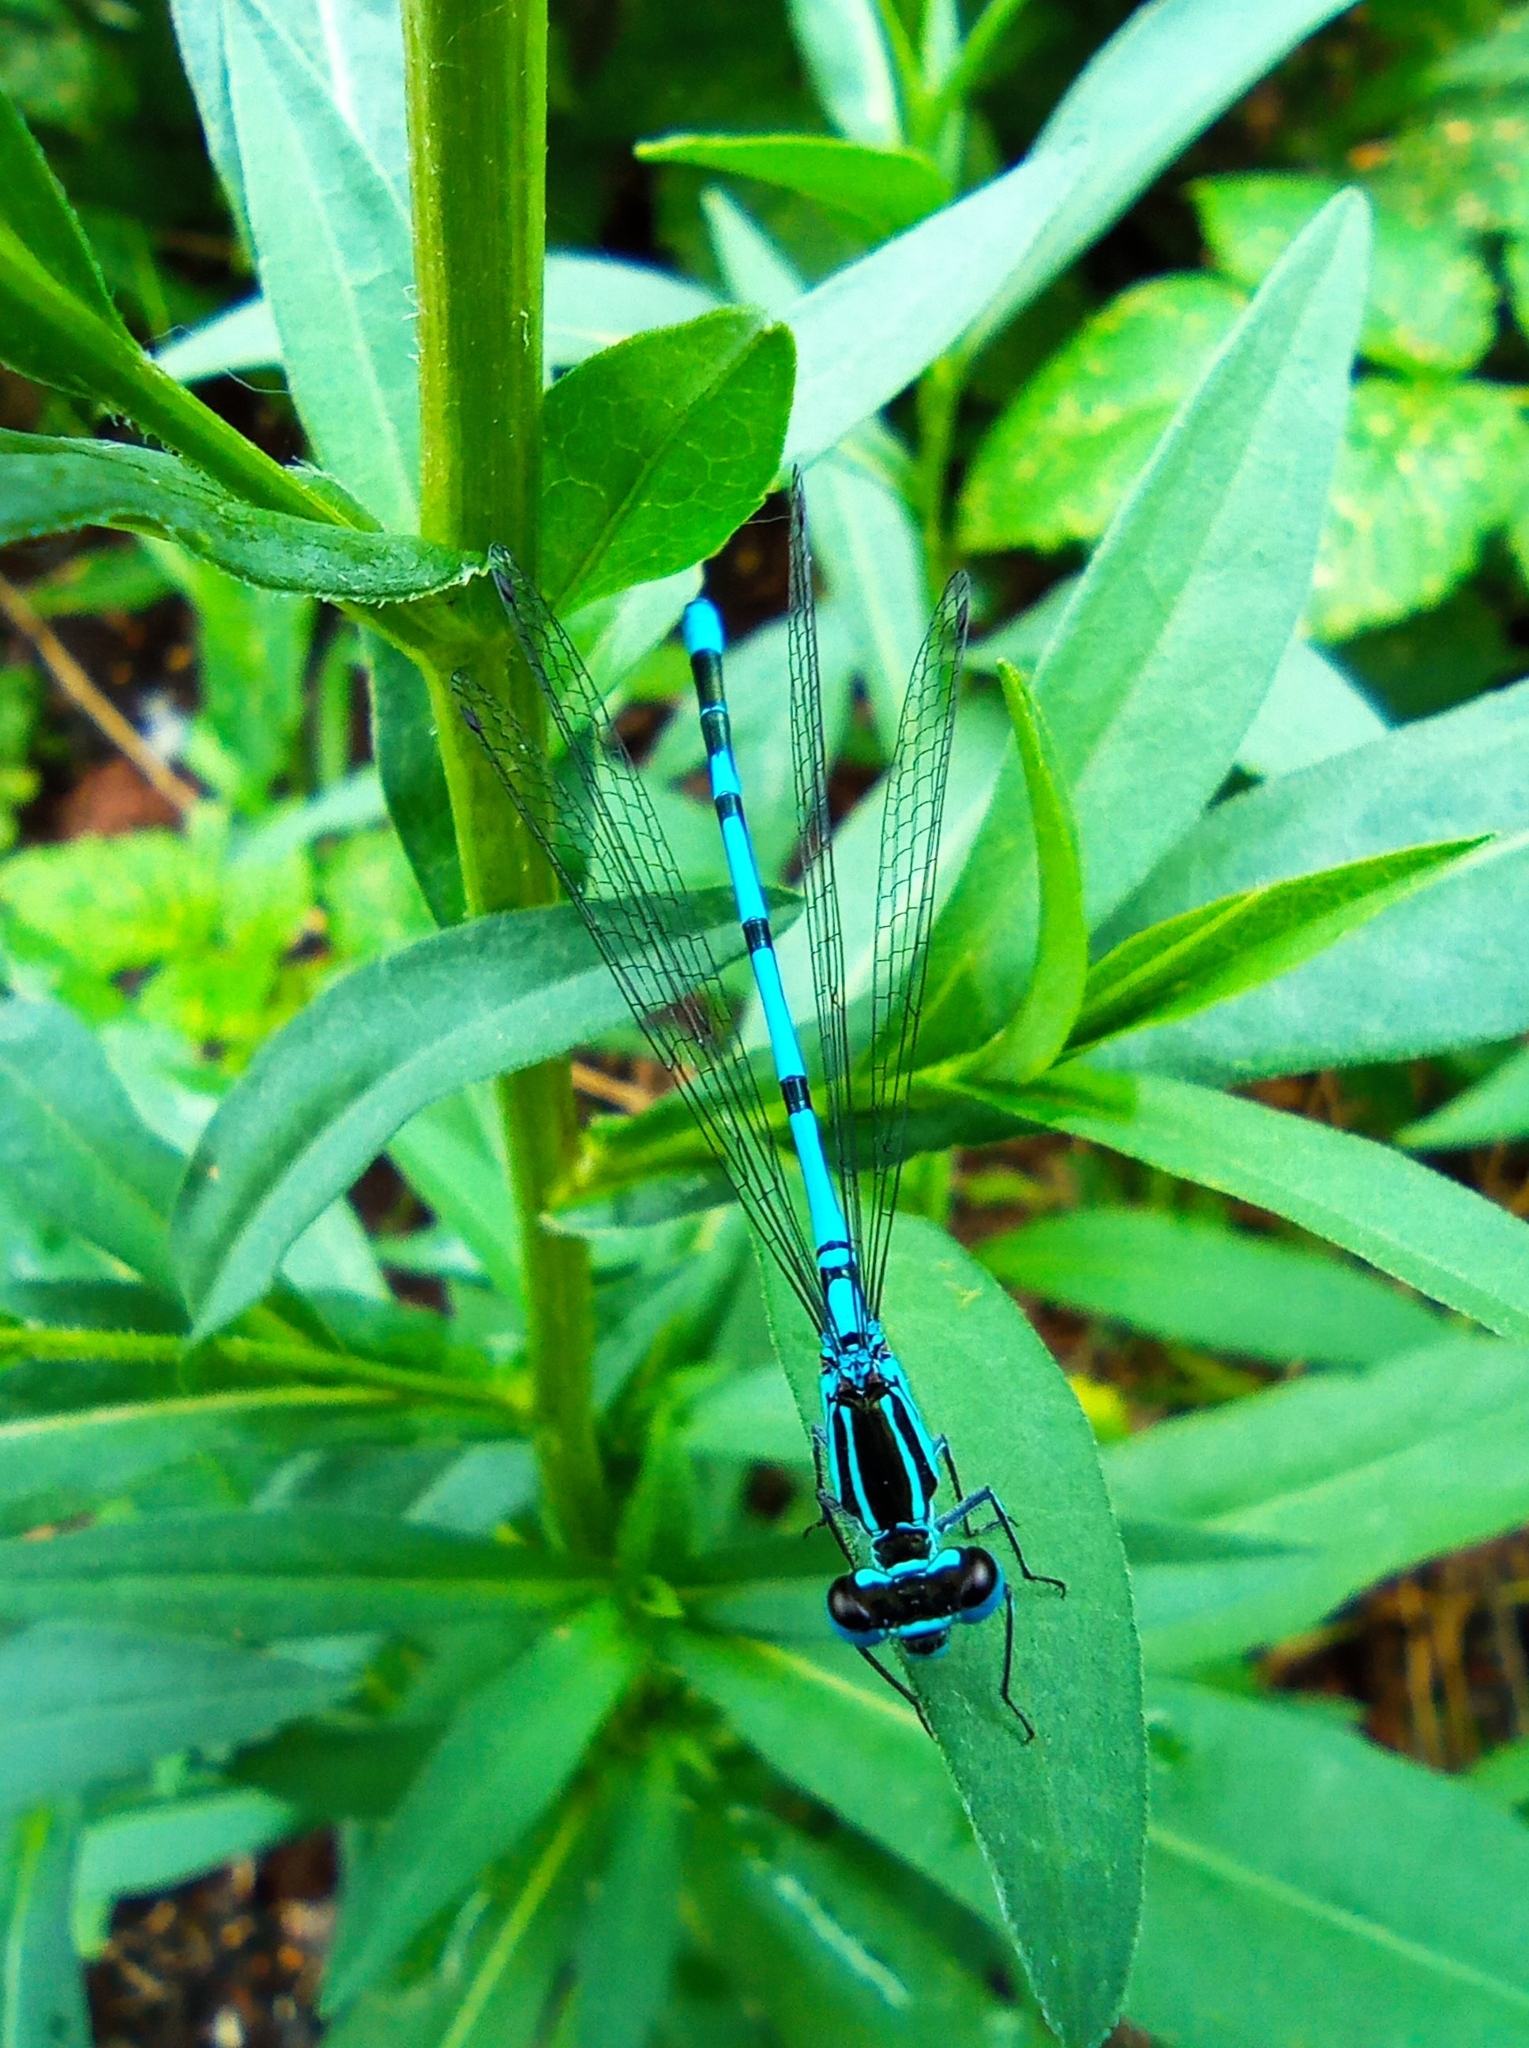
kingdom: Animalia
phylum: Arthropoda
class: Insecta
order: Odonata
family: Coenagrionidae
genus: Coenagrion
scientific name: Coenagrion puella
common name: Azure damselfly
